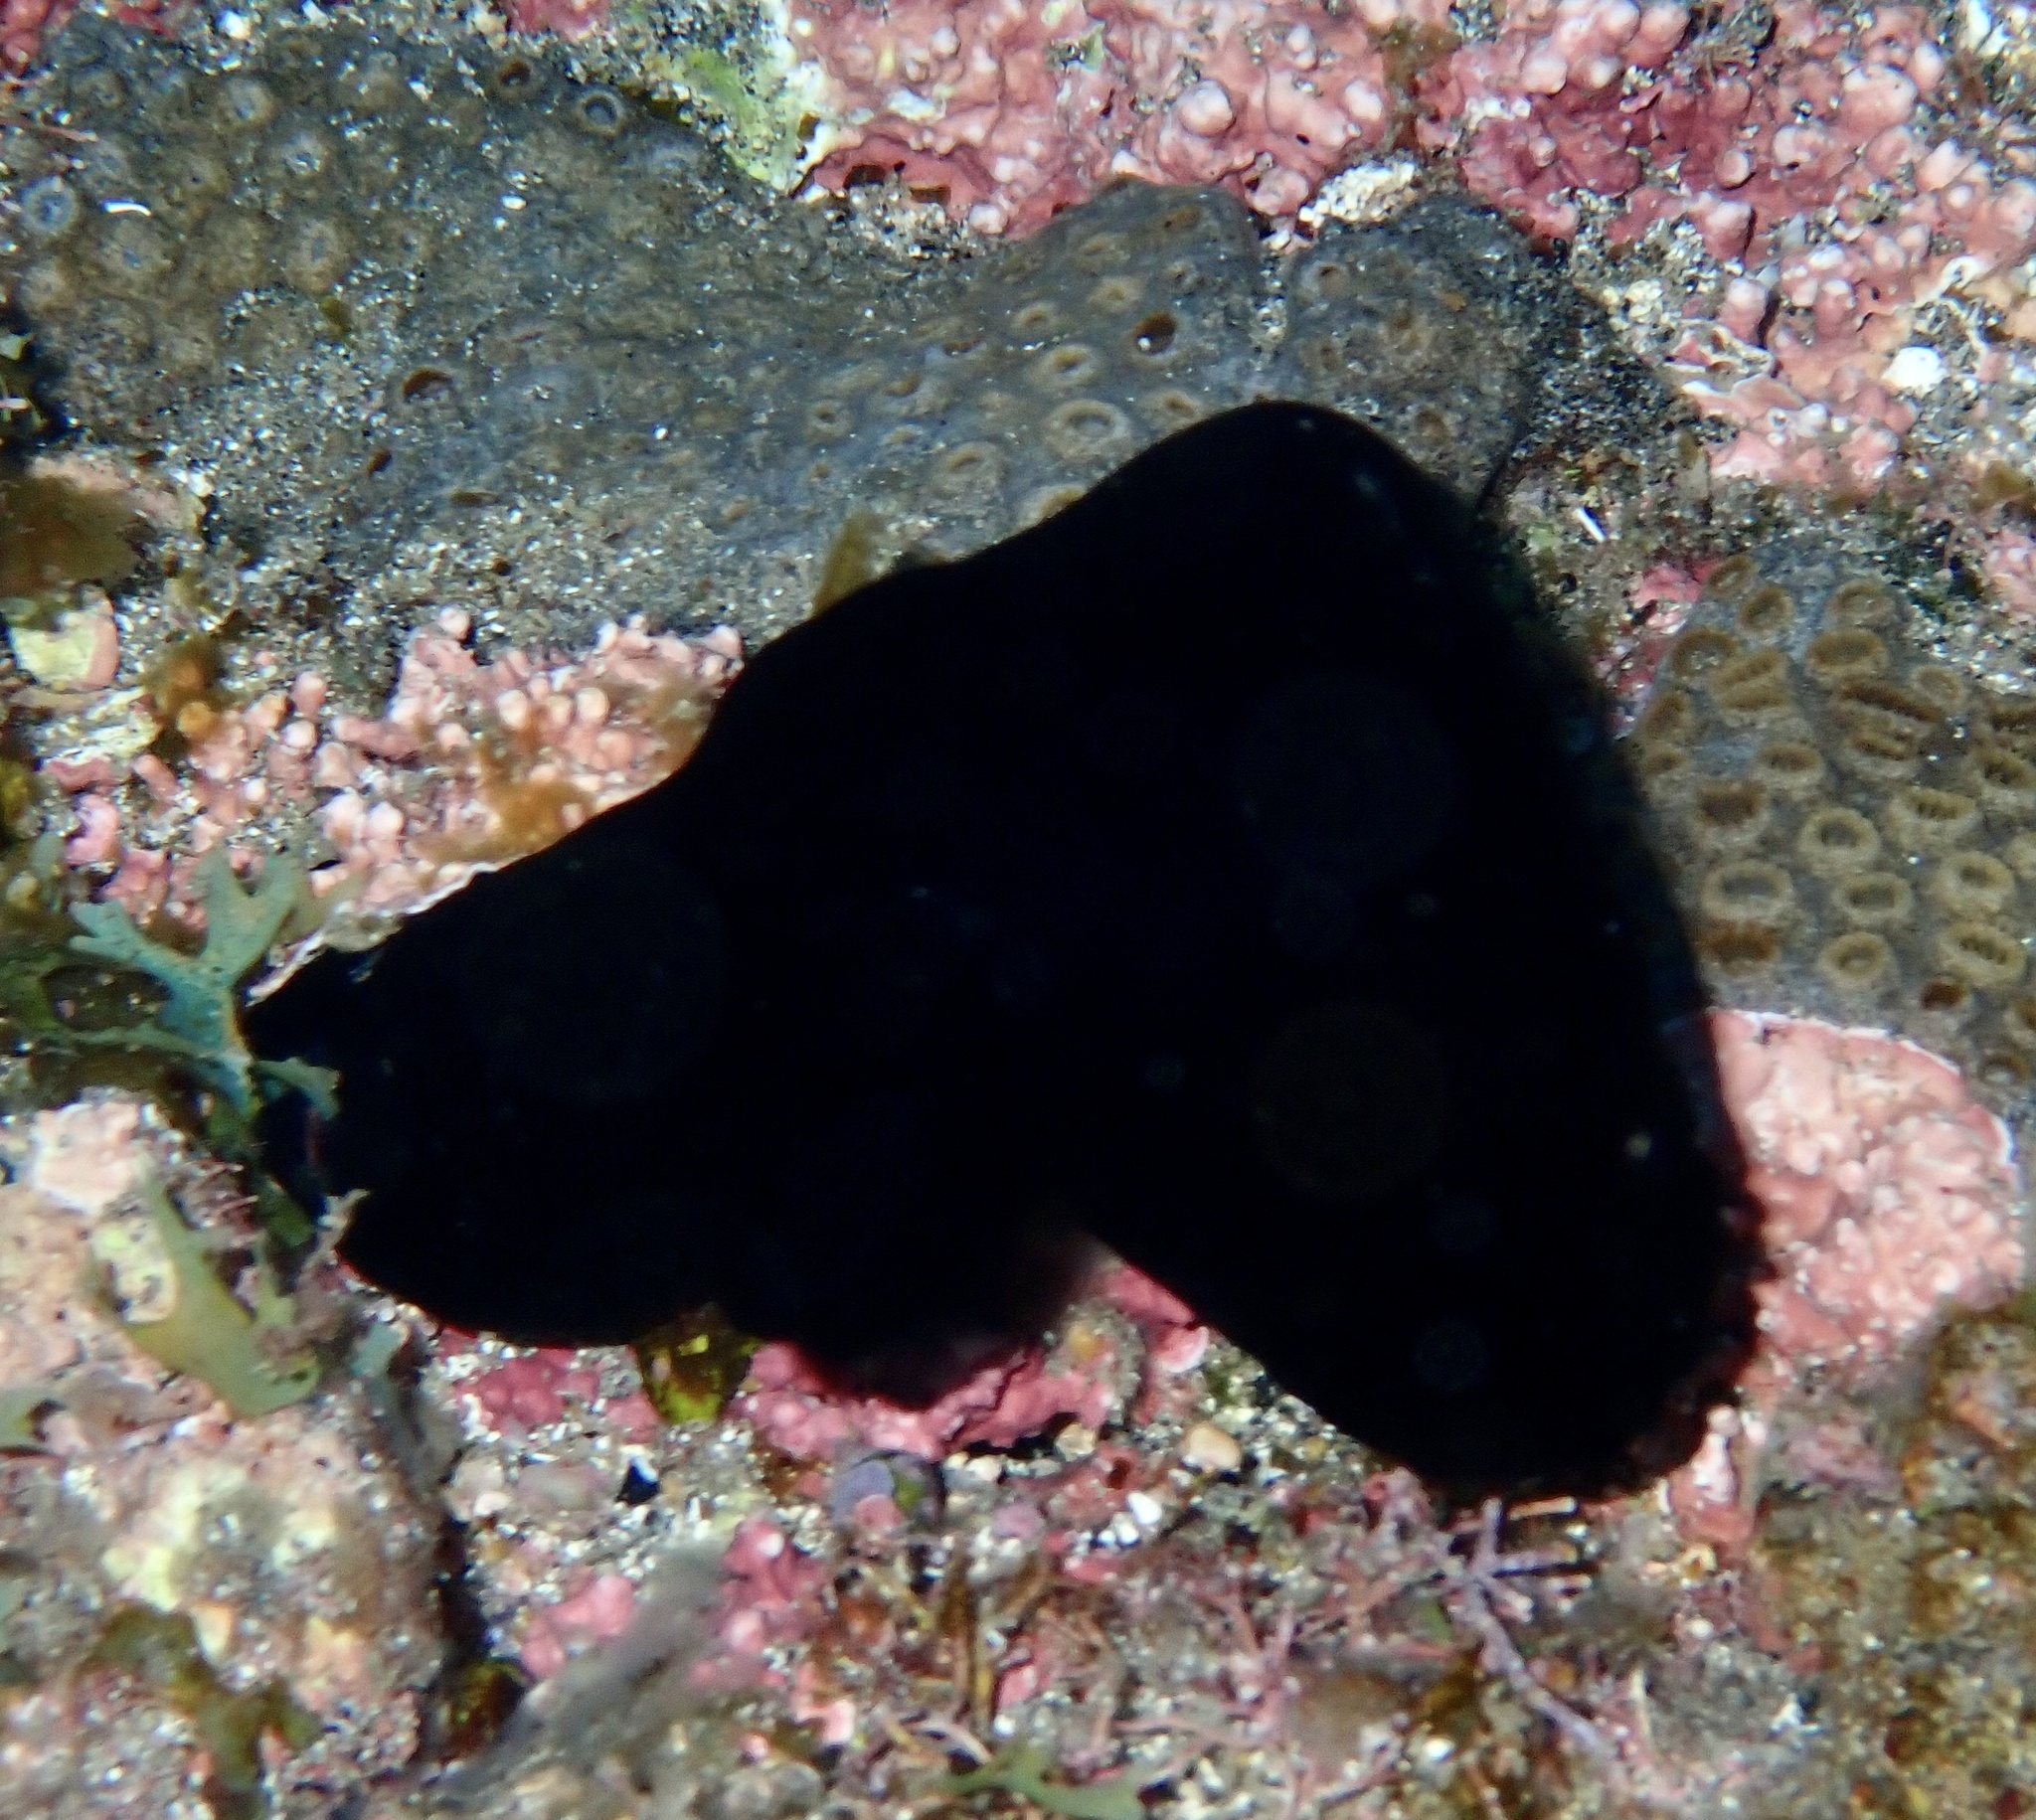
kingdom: Animalia
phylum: Chordata
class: Ascidiacea
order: Phlebobranchia
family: Ascidiidae
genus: Phallusia
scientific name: Phallusia nigra
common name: Black tunicate
